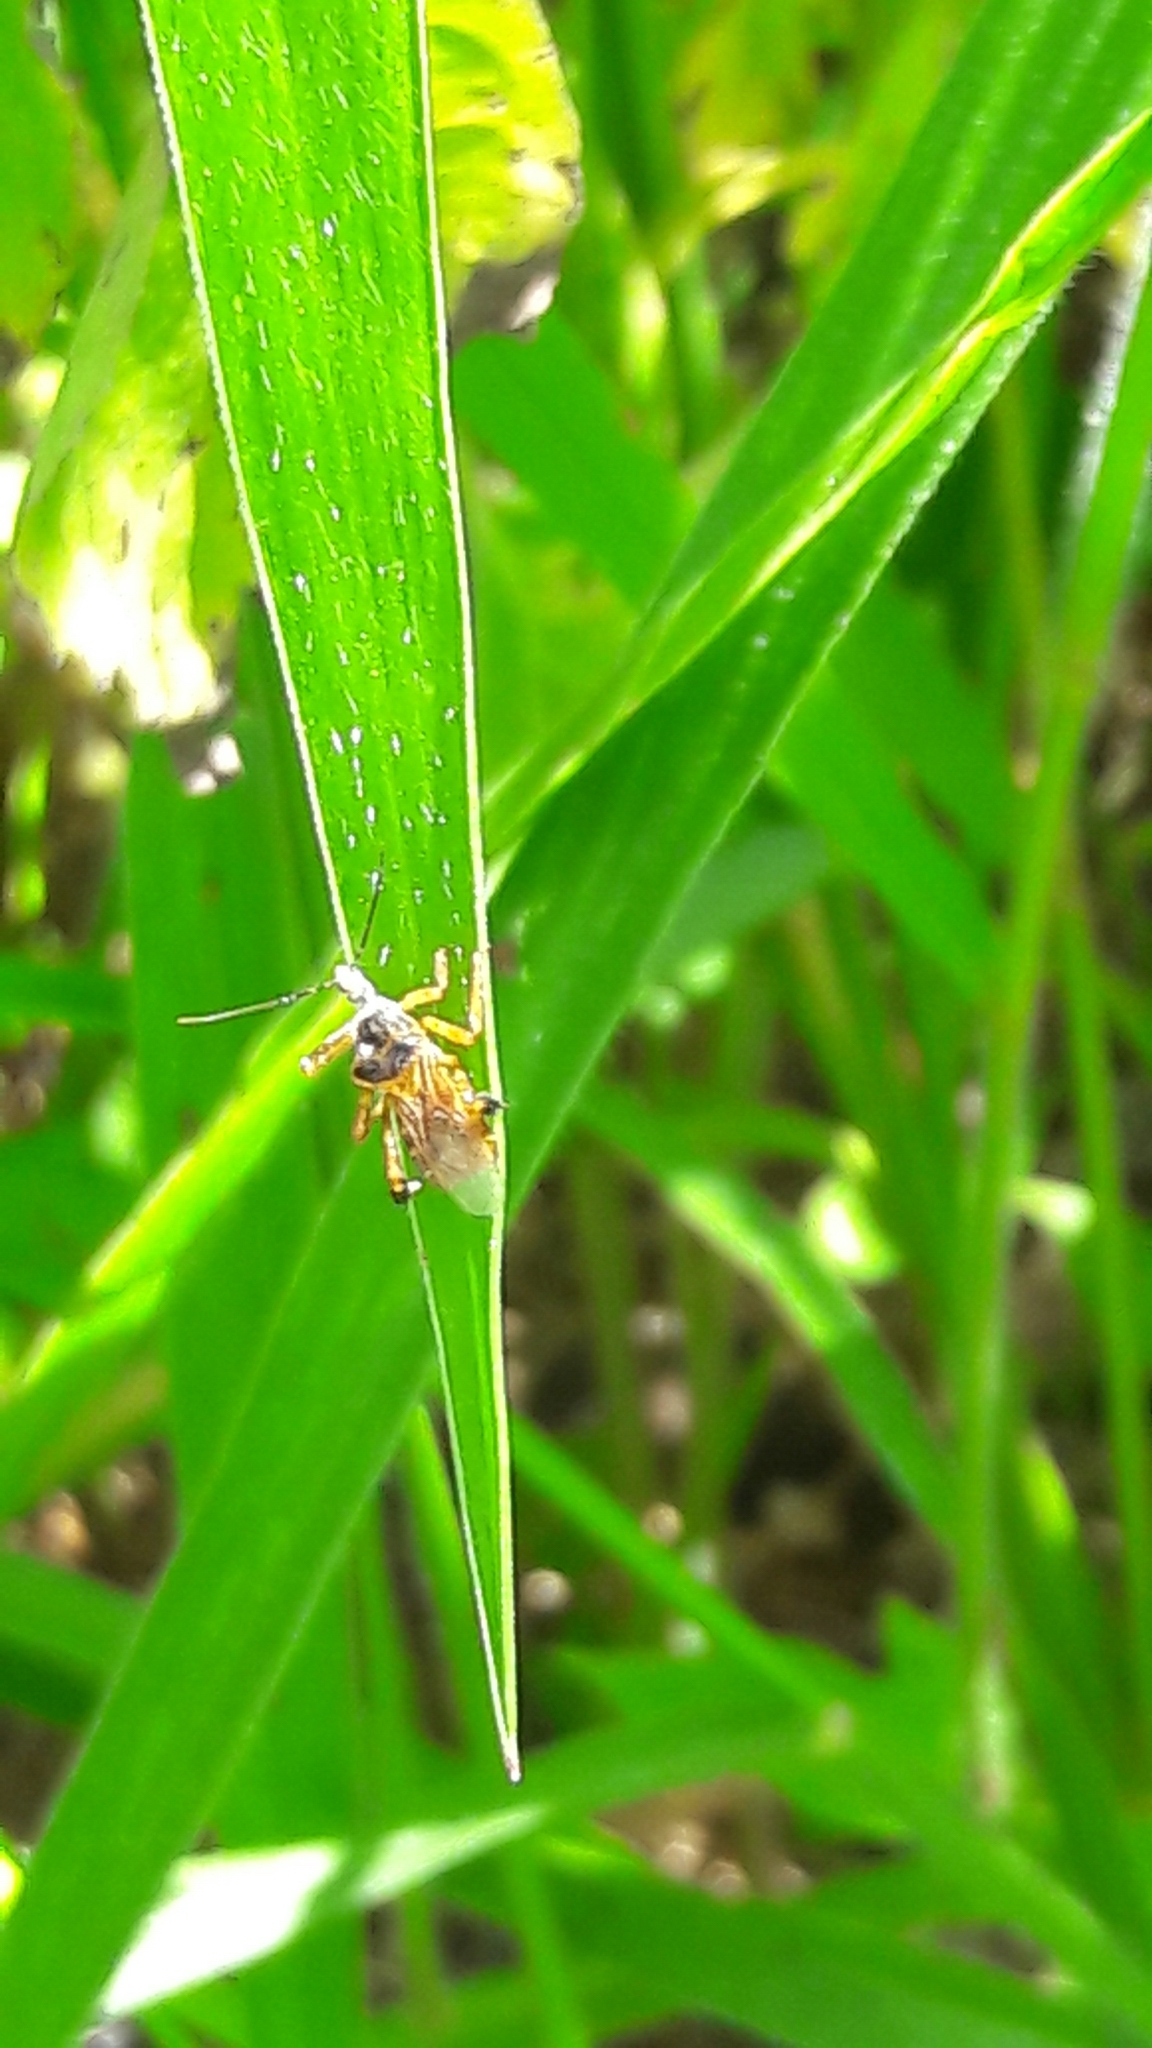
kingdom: Animalia
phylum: Arthropoda
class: Insecta
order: Hemiptera
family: Reduviidae
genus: Notocyrtus
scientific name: Notocyrtus dorsalis
